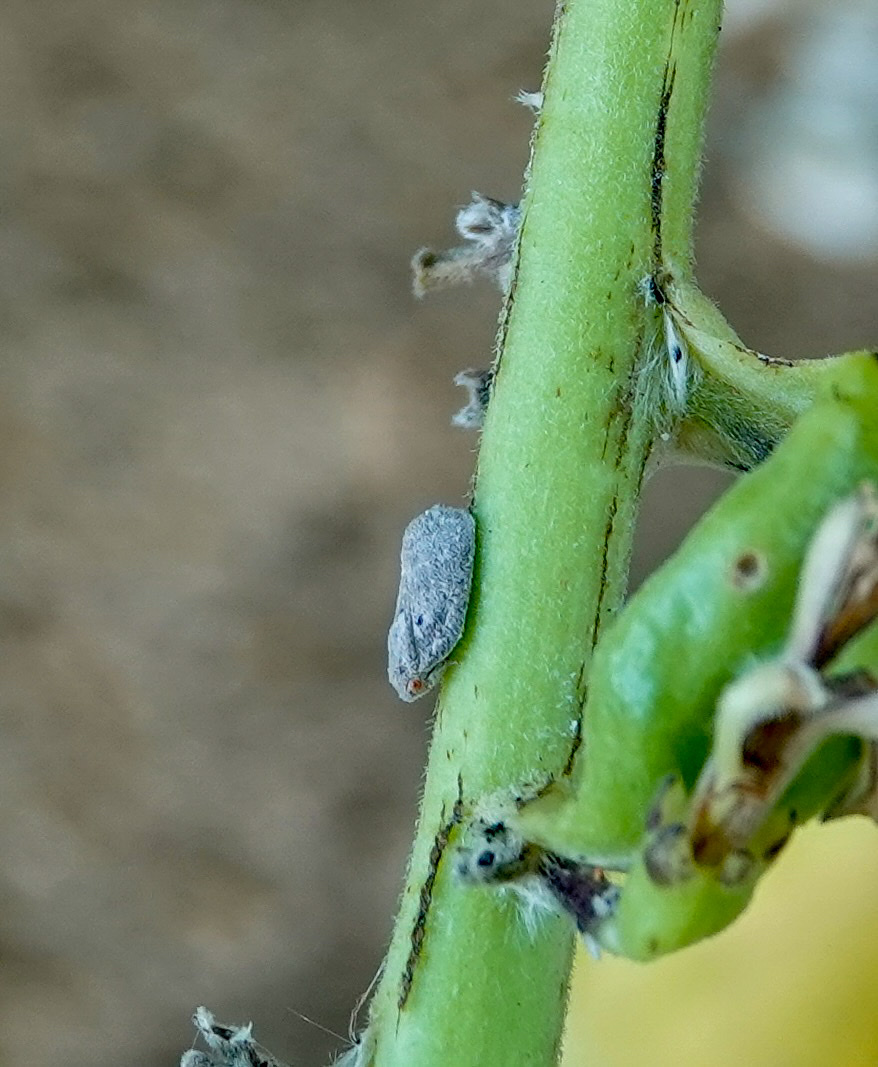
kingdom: Animalia
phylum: Arthropoda
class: Insecta
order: Hemiptera
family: Flatidae
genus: Melormenis
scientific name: Melormenis basalis
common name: Puerto rican planthopper
